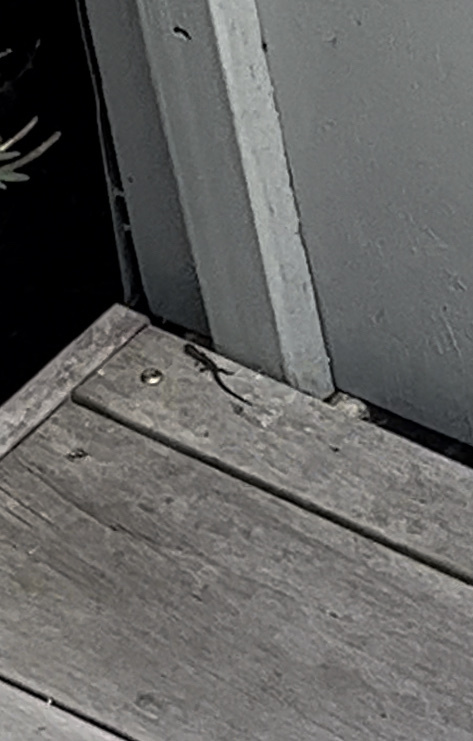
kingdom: Animalia
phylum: Chordata
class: Squamata
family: Scincidae
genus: Lampropholis
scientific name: Lampropholis delicata
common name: Plague skink
